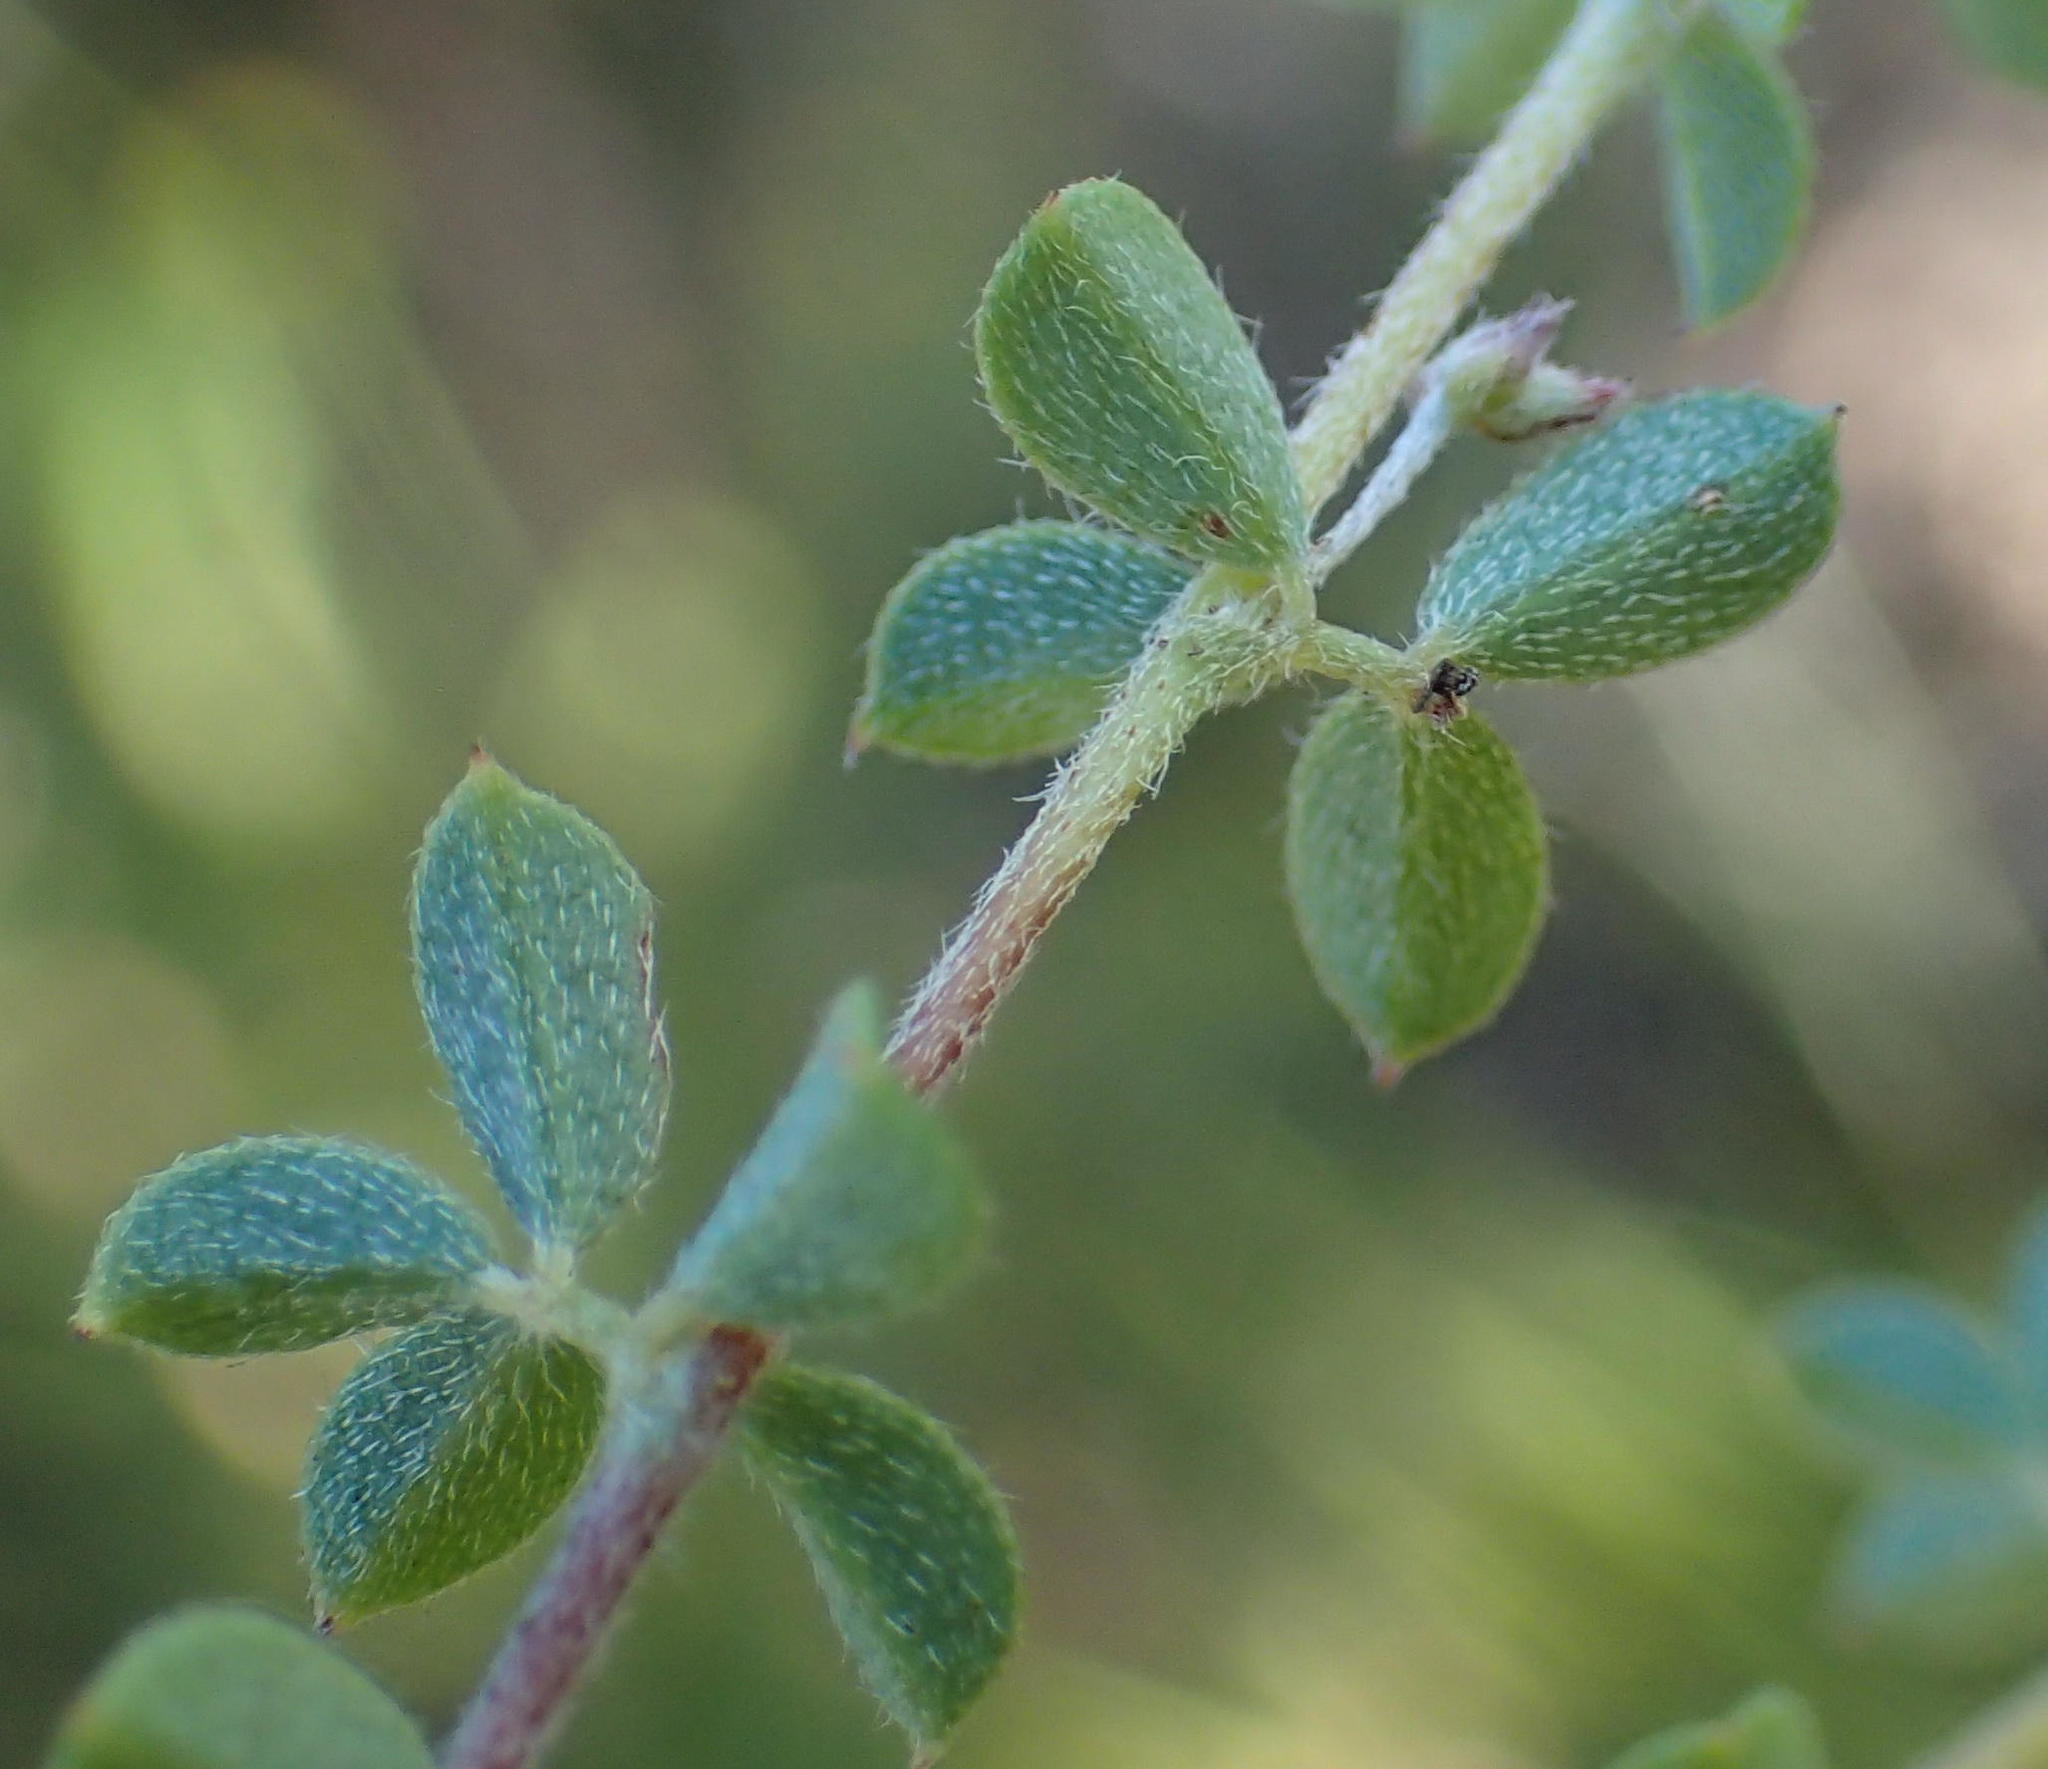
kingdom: Plantae
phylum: Tracheophyta
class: Magnoliopsida
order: Fabales
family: Fabaceae
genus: Indigofera
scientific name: Indigofera alopecuroides
